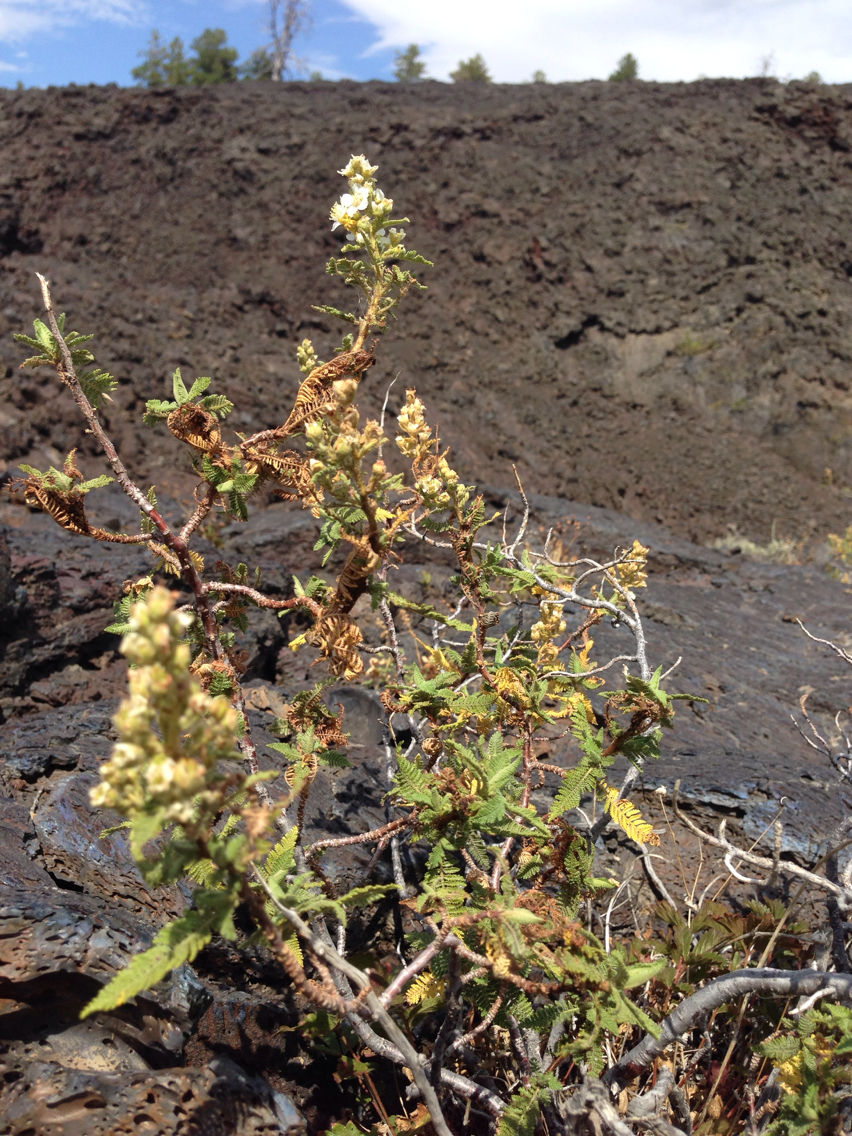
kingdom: Plantae
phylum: Tracheophyta
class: Magnoliopsida
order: Rosales
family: Rosaceae
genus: Chamaebatiaria
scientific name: Chamaebatiaria millefolium
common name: Fernbush
